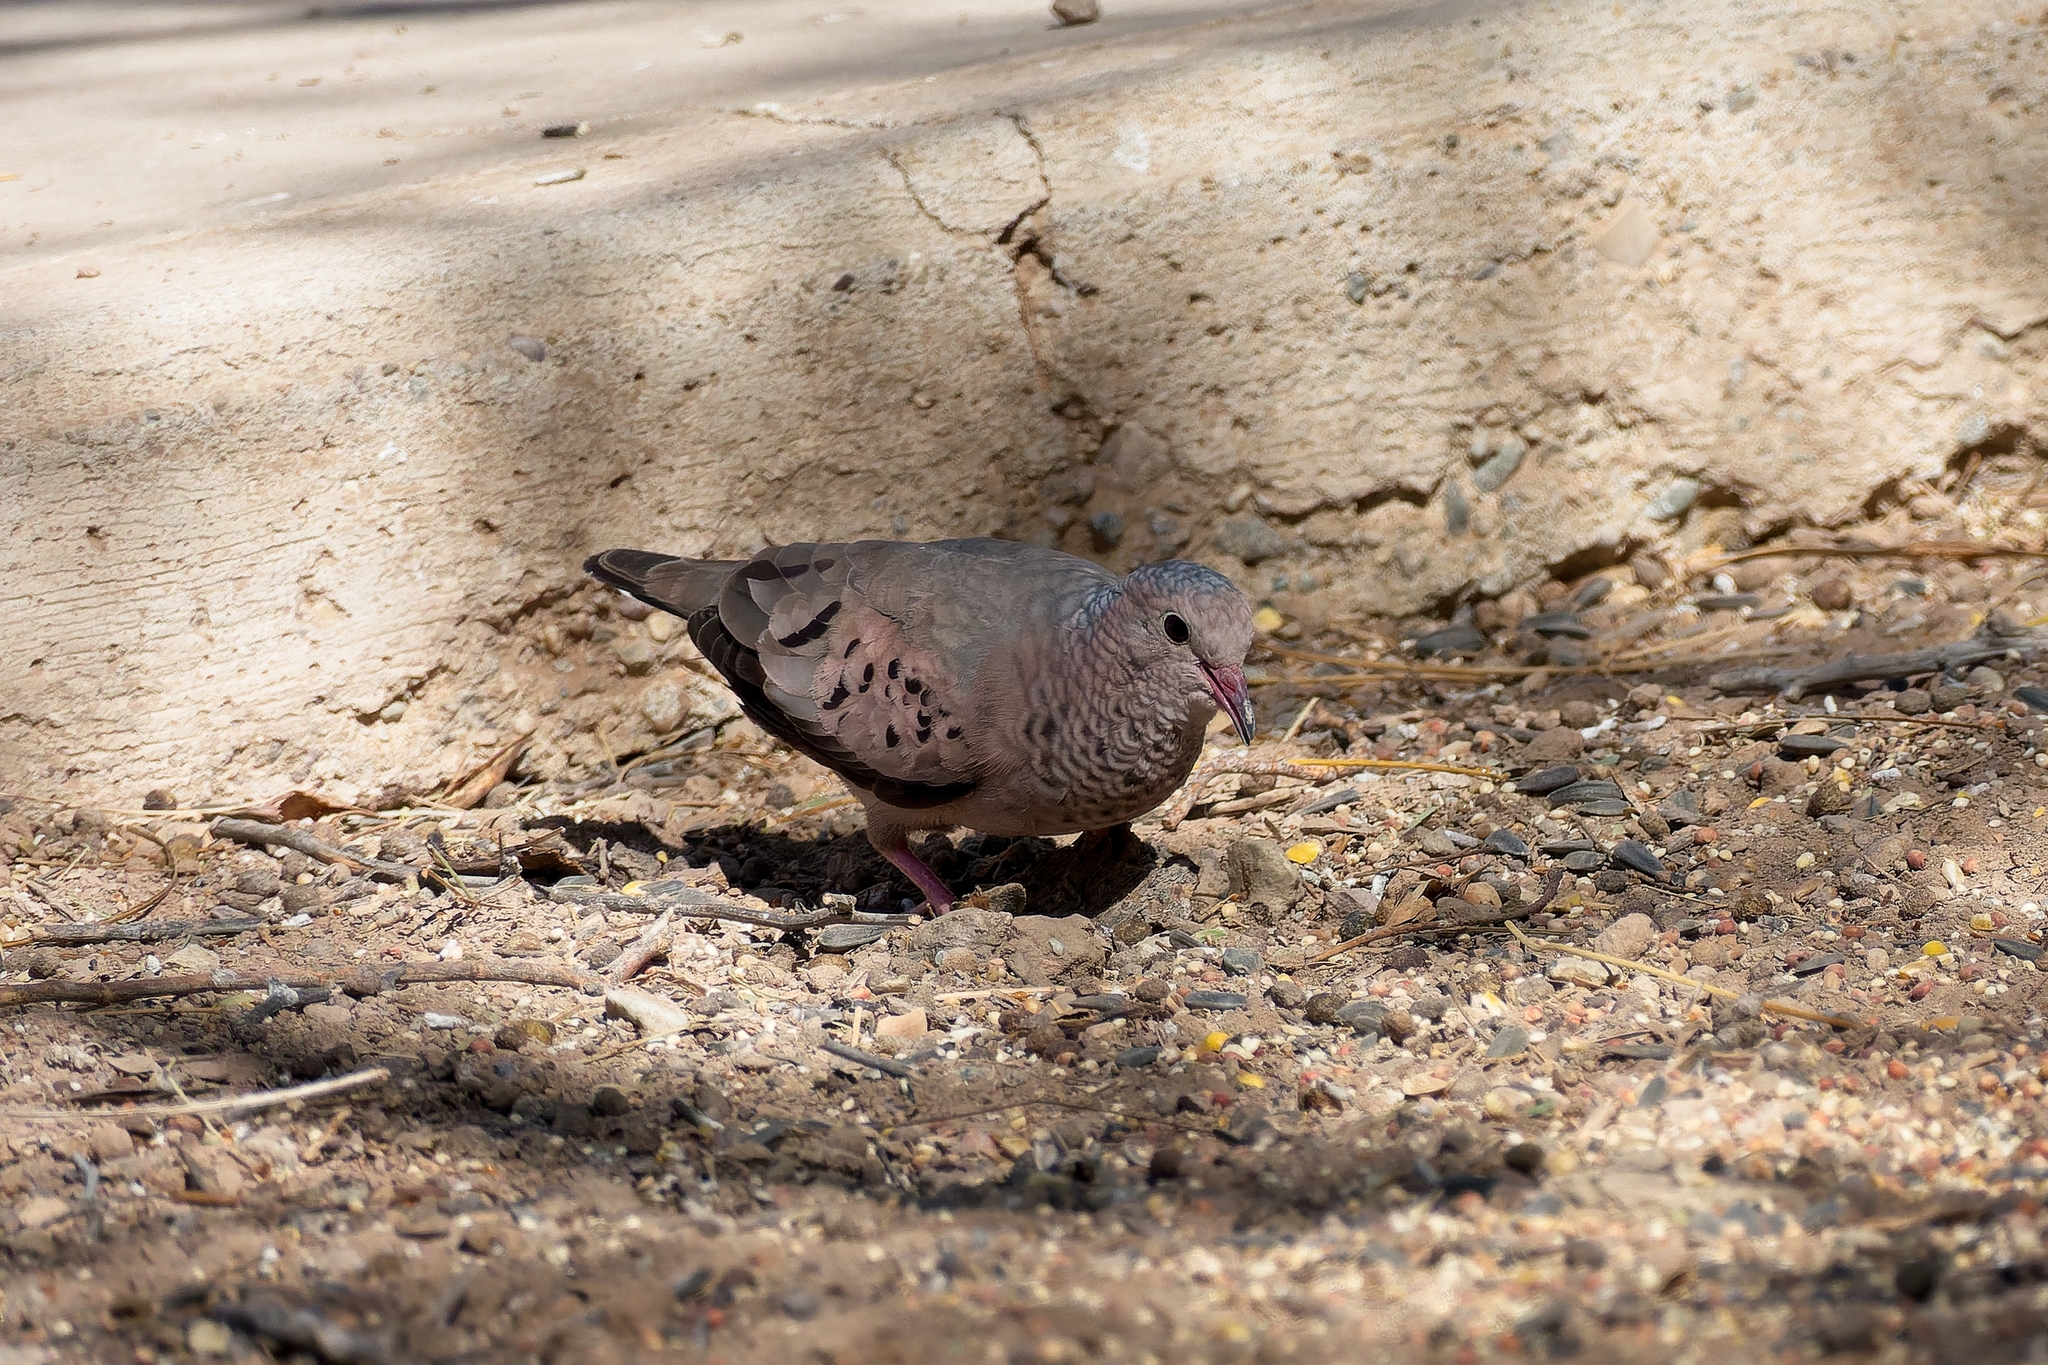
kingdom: Animalia
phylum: Chordata
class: Aves
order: Columbiformes
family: Columbidae
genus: Columbina
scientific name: Columbina passerina
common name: Common ground-dove
